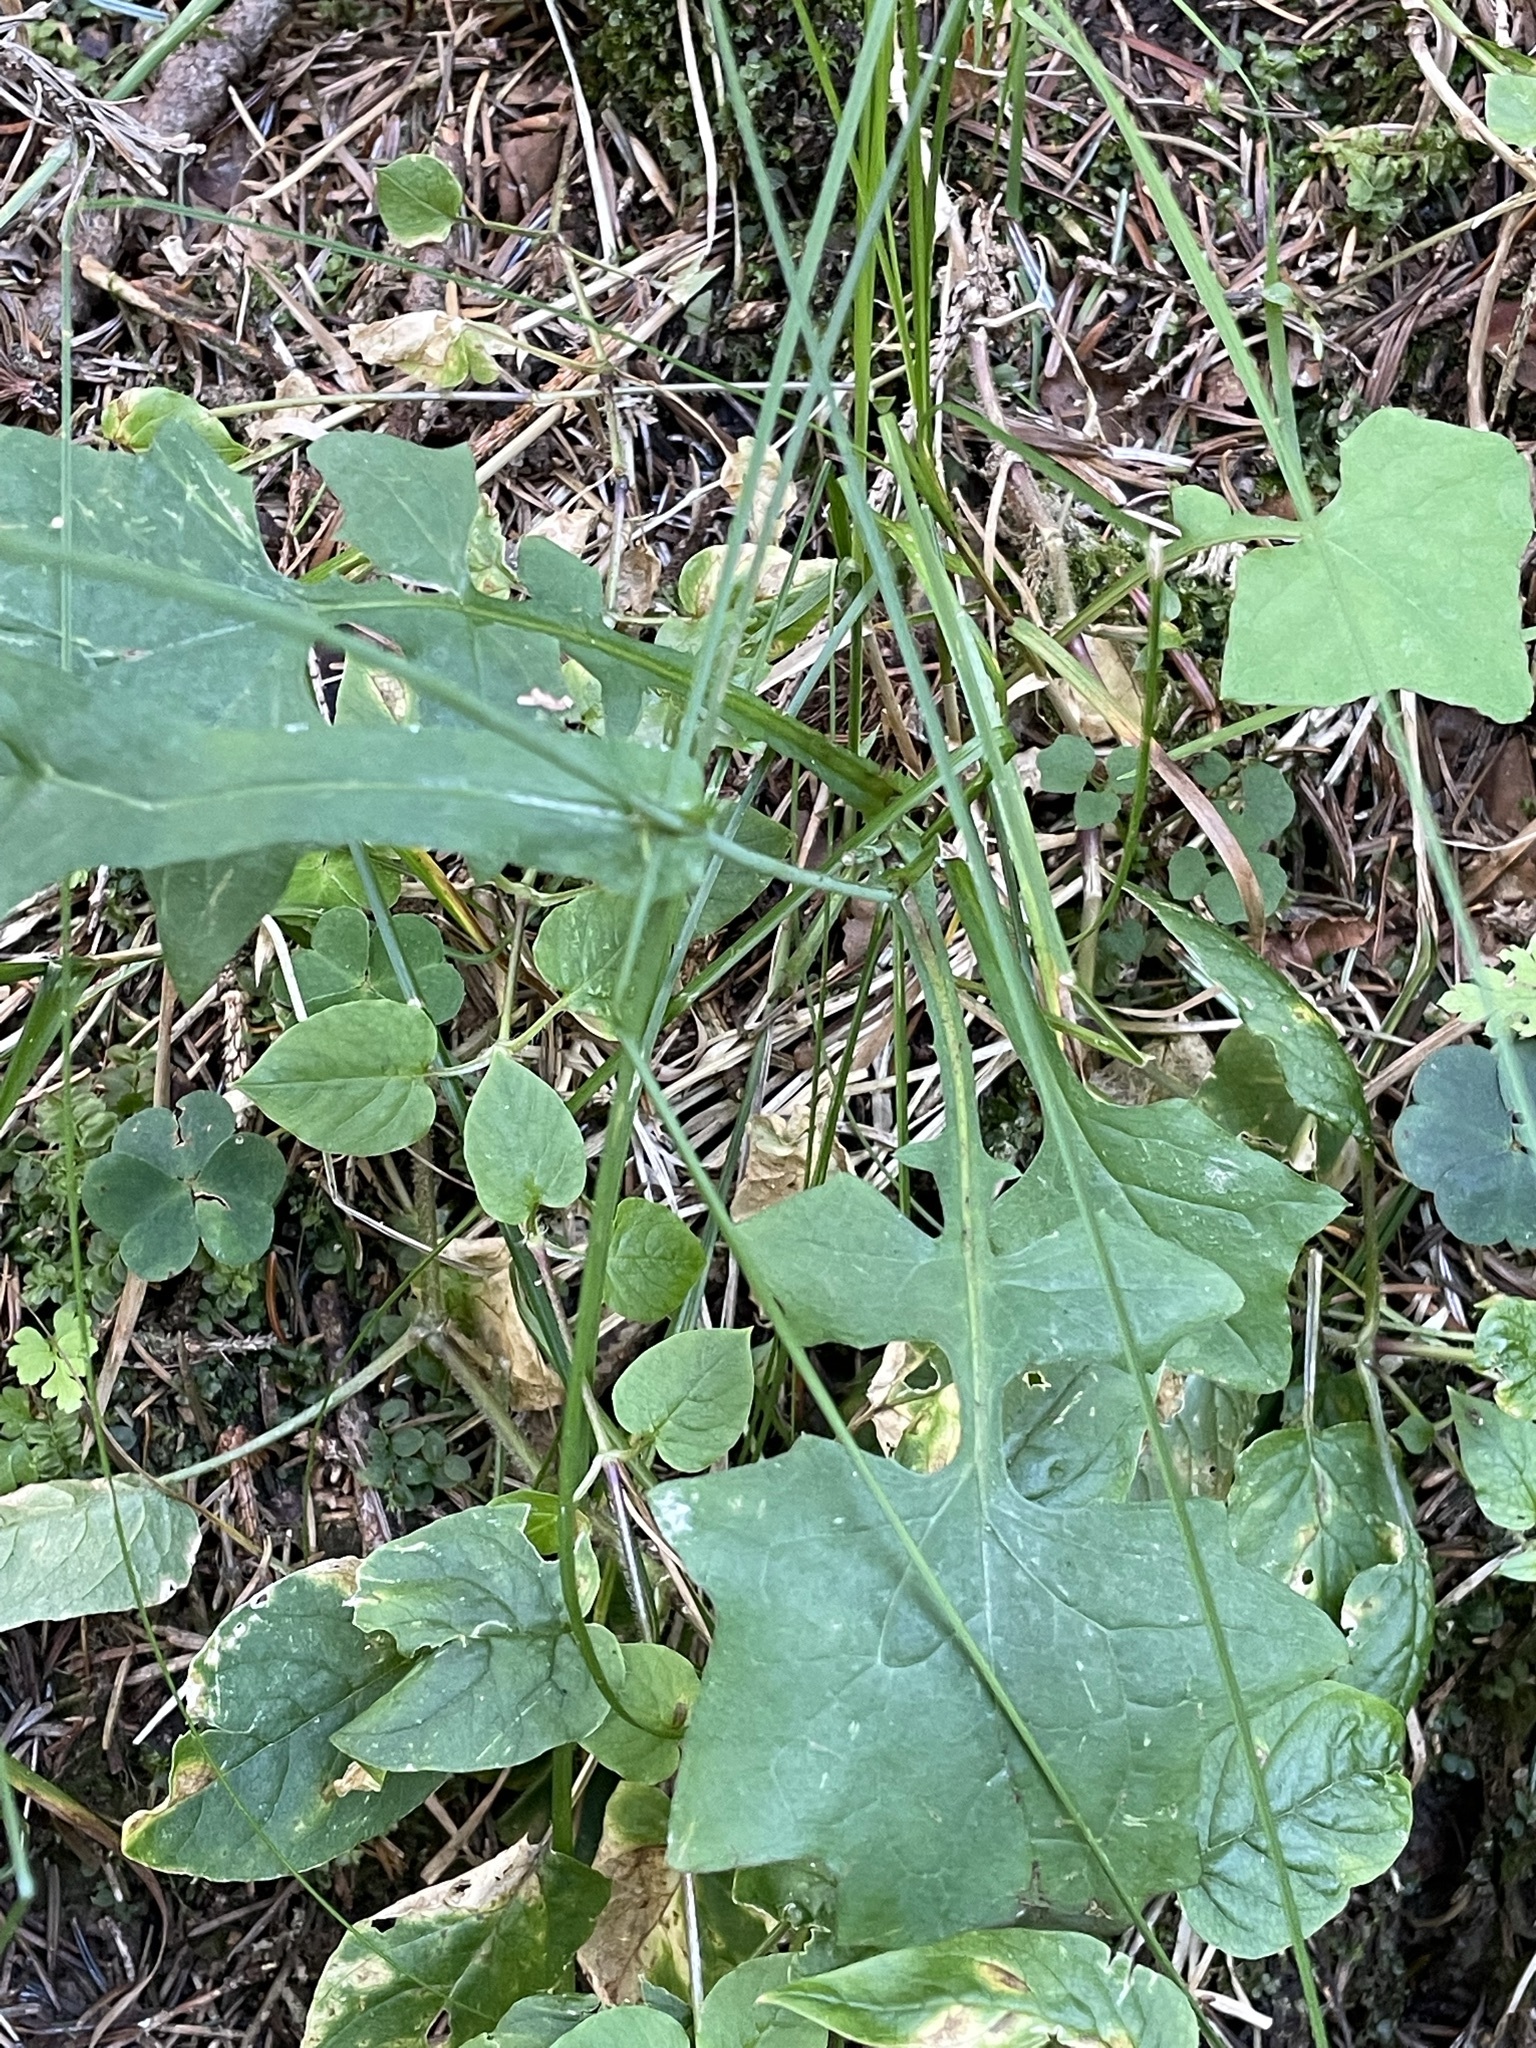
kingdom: Plantae
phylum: Tracheophyta
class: Magnoliopsida
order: Asterales
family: Asteraceae
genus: Mycelis
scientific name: Mycelis muralis
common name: Wall lettuce
